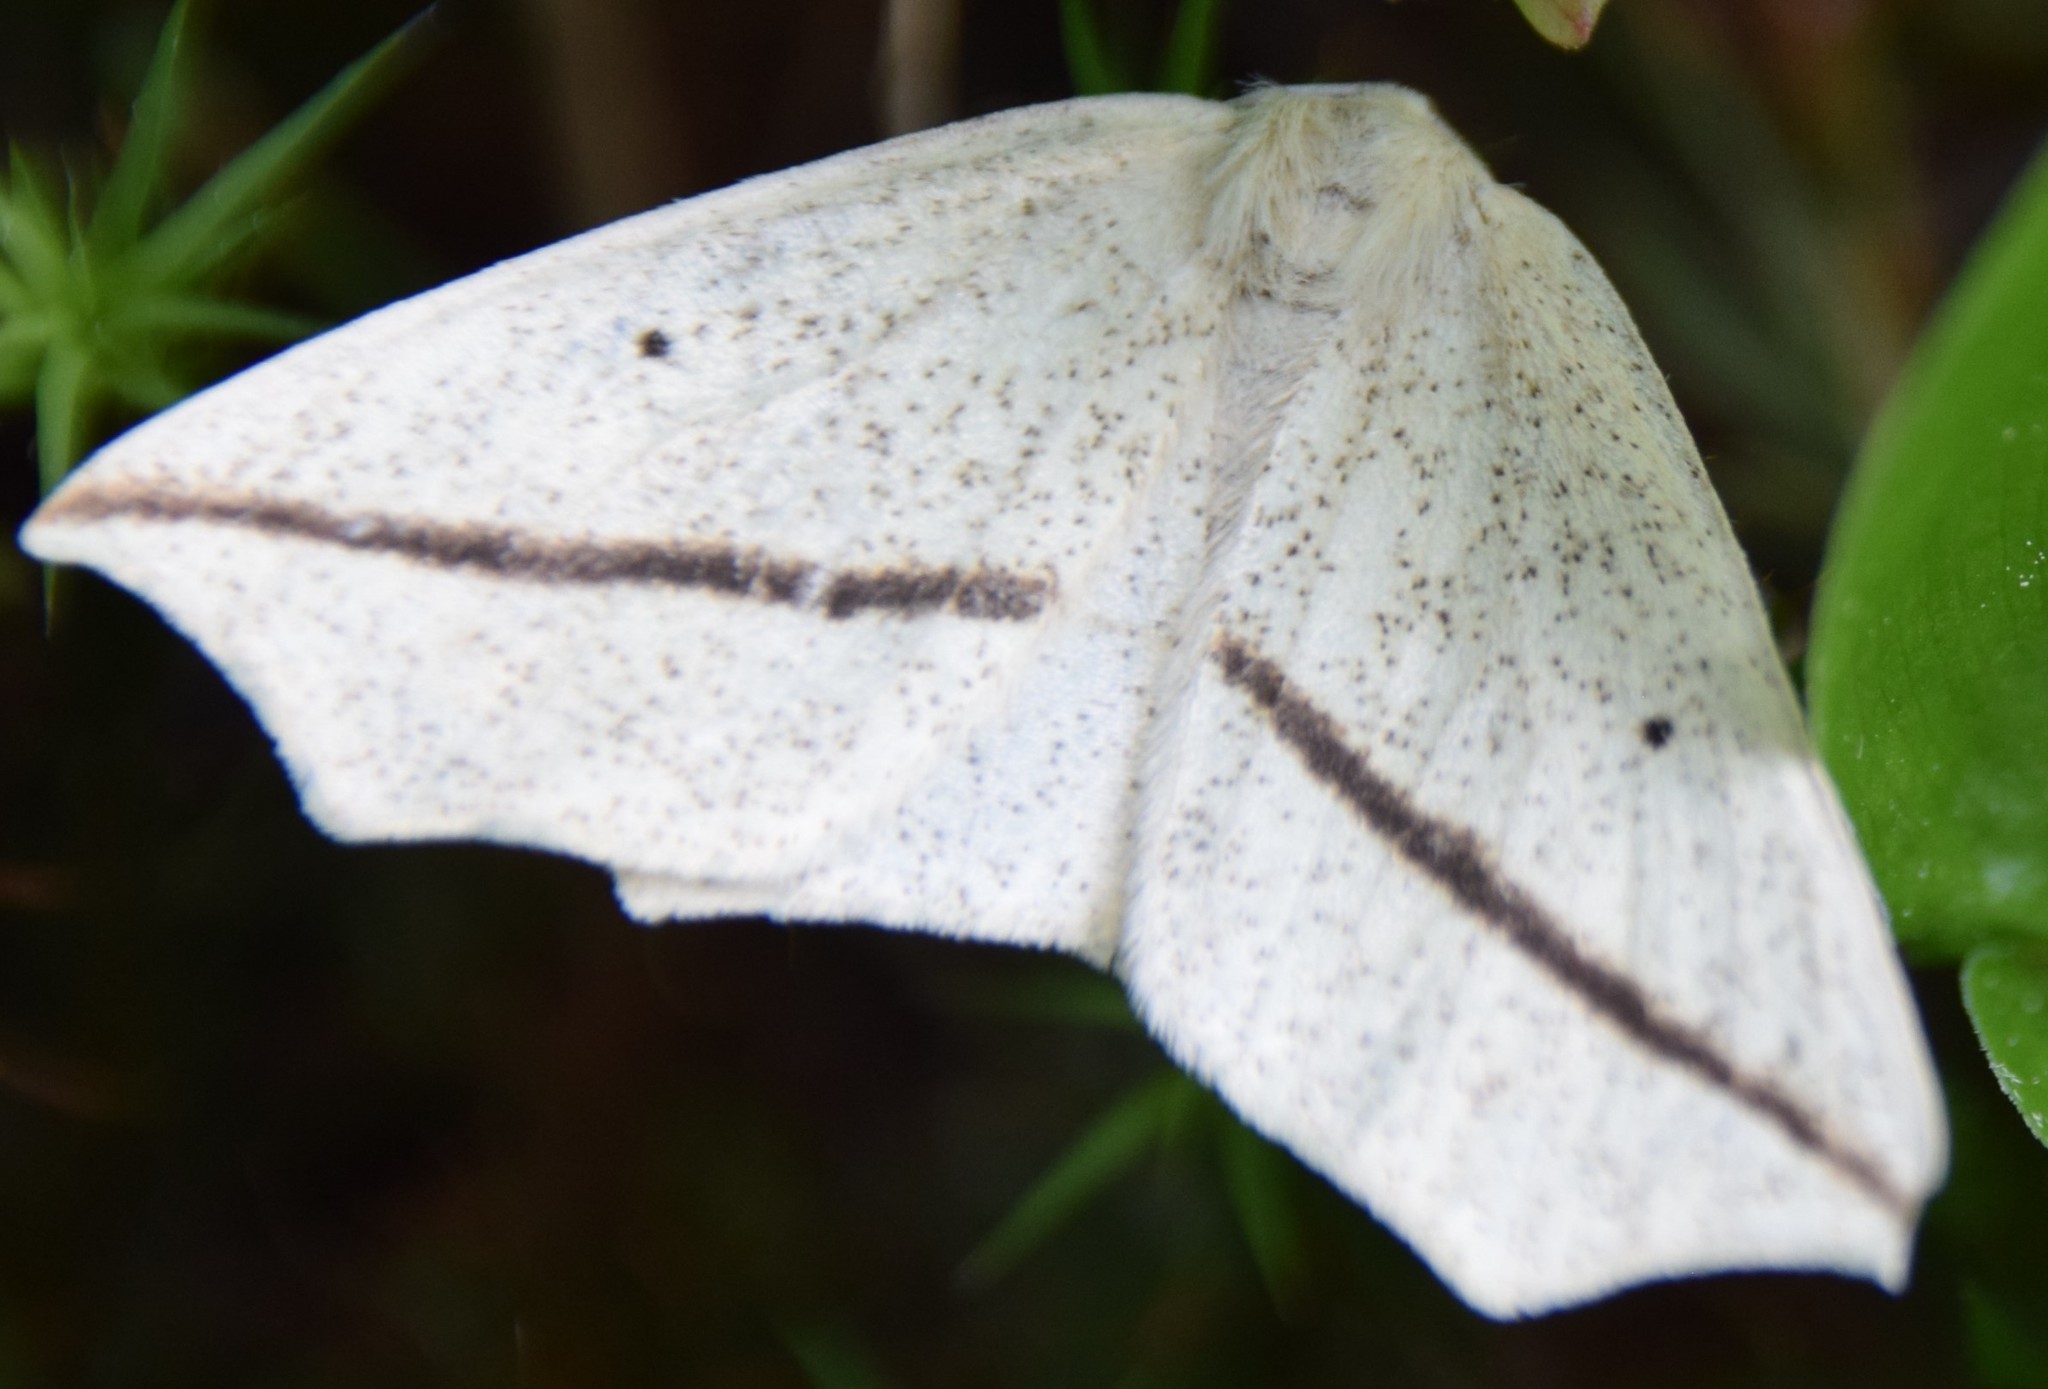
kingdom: Animalia
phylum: Arthropoda
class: Insecta
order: Lepidoptera
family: Geometridae
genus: Tetracis
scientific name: Tetracis crocallata
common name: Yellow slant-line
